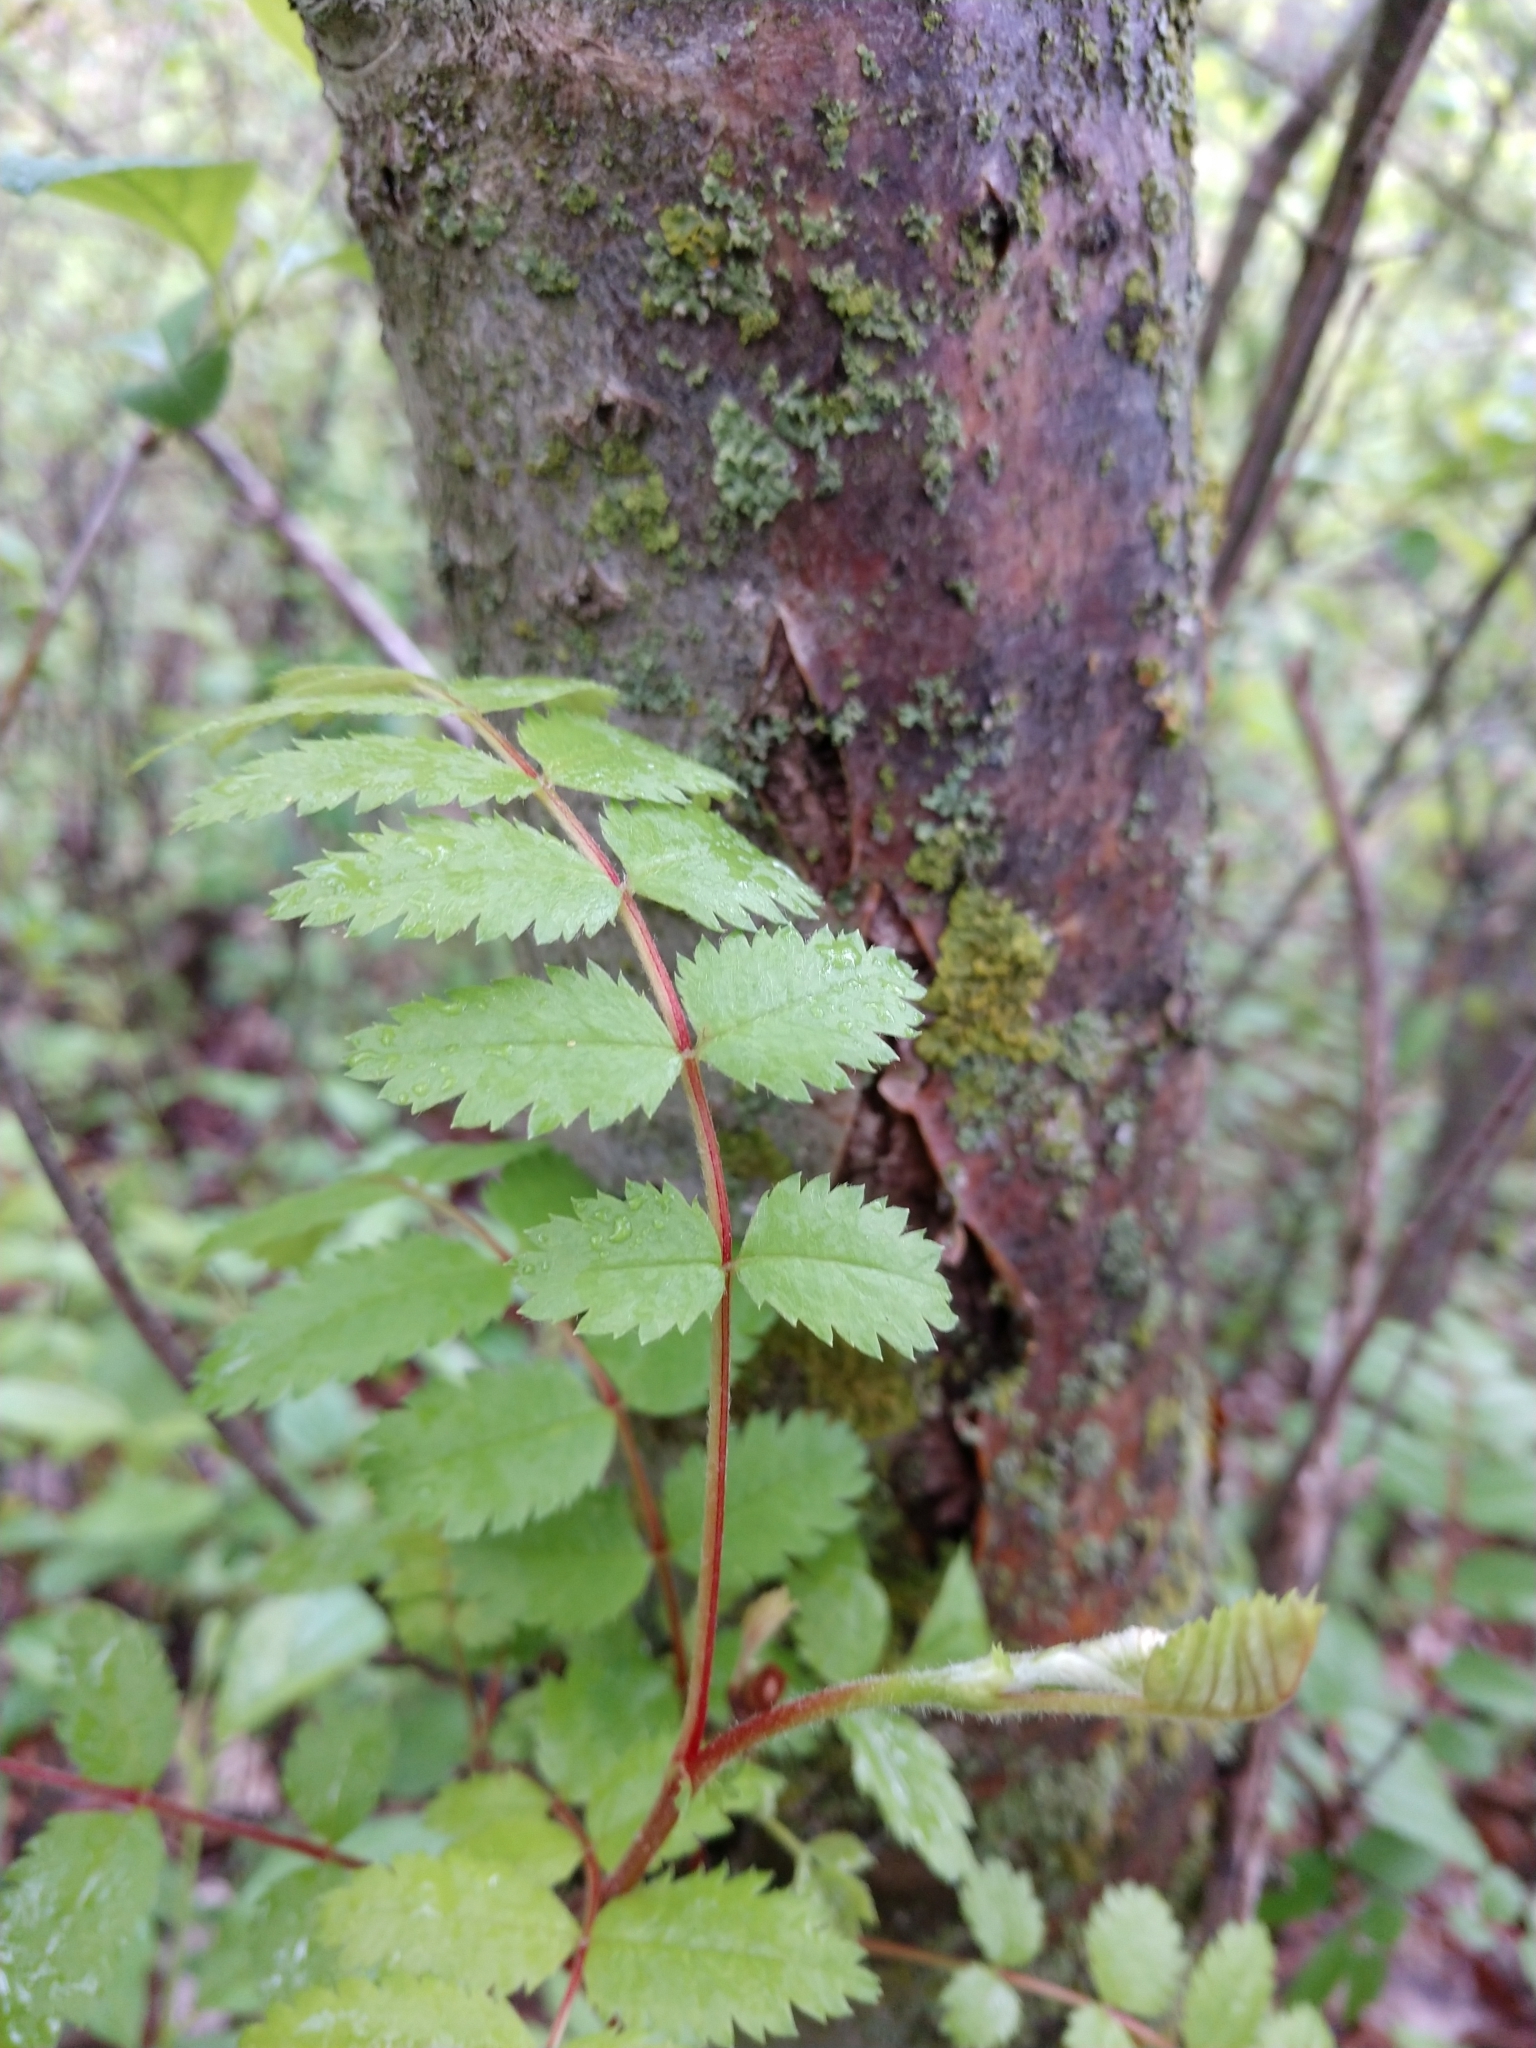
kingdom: Plantae
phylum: Tracheophyta
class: Magnoliopsida
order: Rosales
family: Rosaceae
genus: Sorbus
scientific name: Sorbus aucuparia
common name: Rowan
